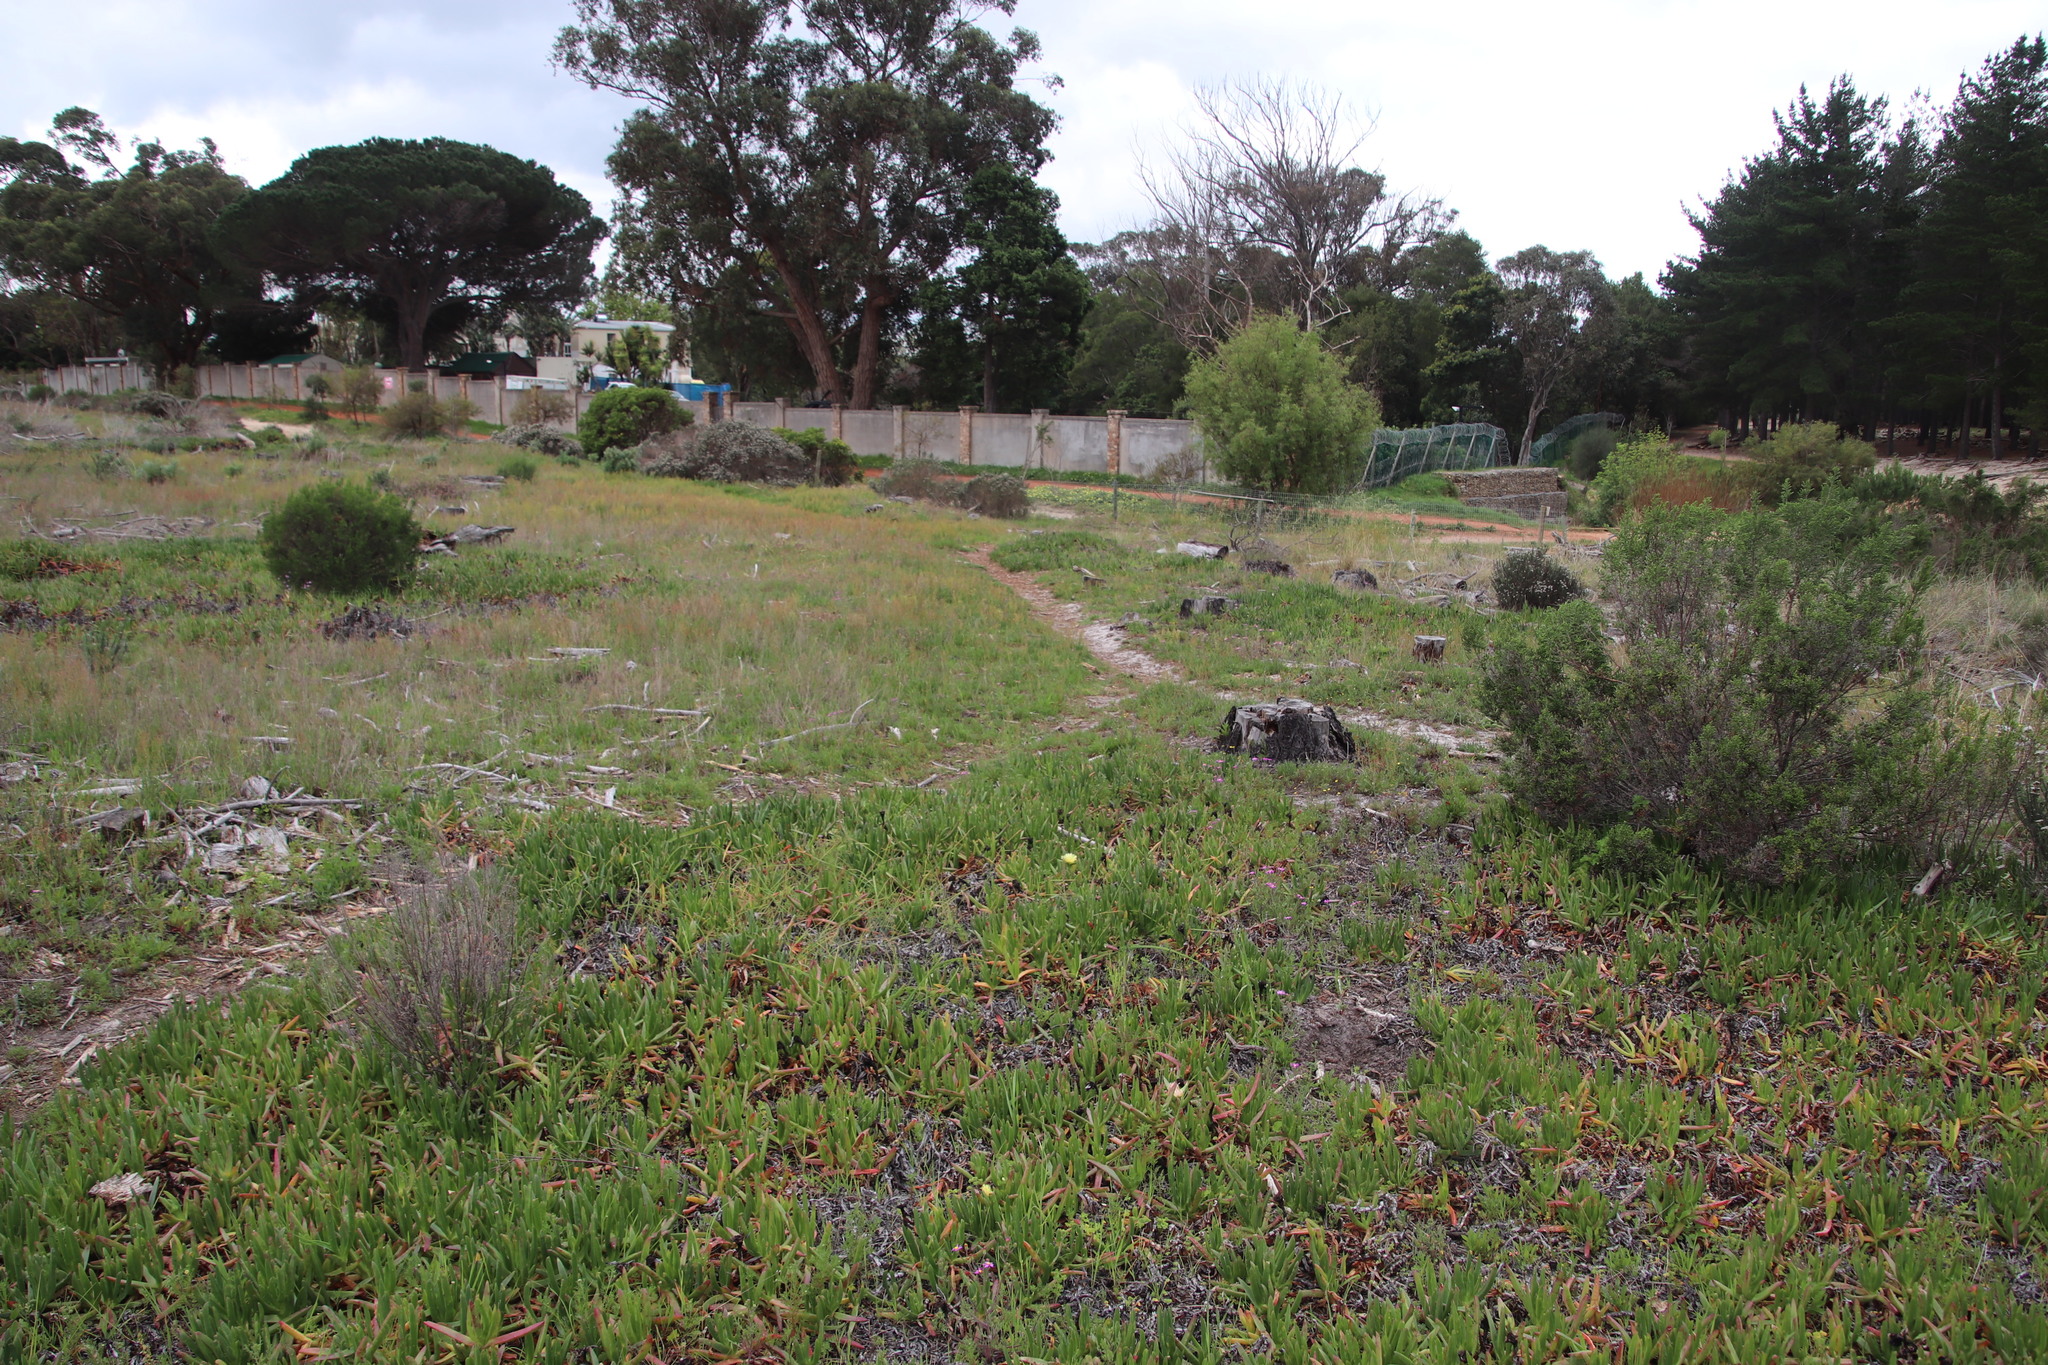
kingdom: Plantae
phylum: Tracheophyta
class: Magnoliopsida
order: Caryophyllales
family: Aizoaceae
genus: Carpobrotus
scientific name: Carpobrotus edulis
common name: Hottentot-fig
